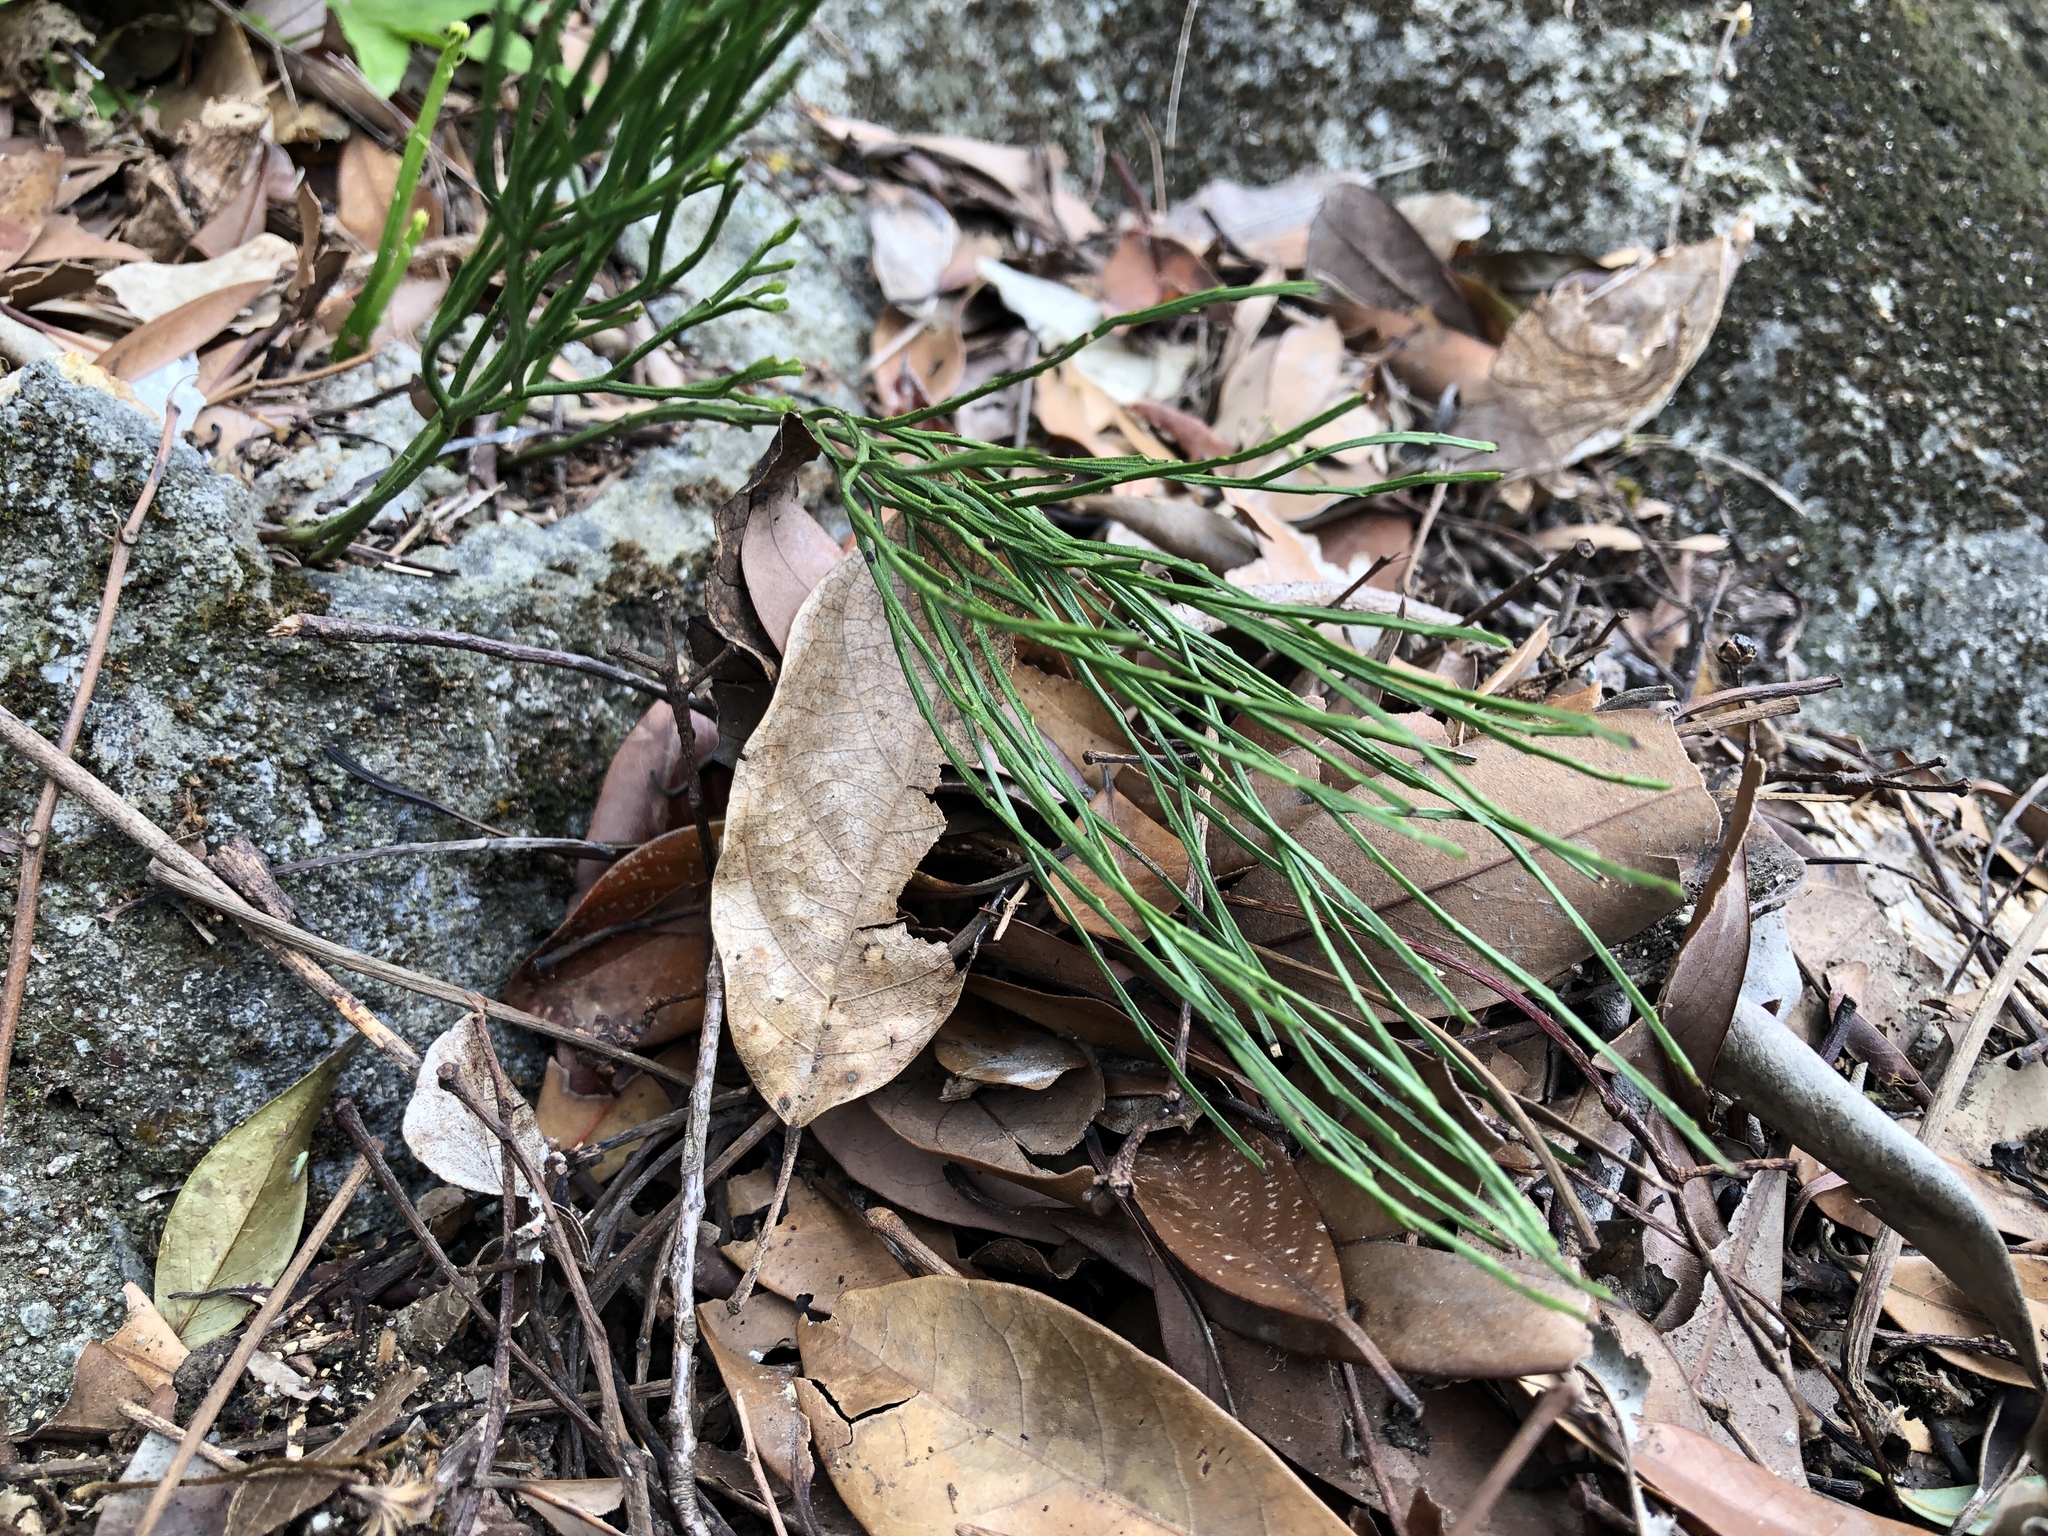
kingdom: Plantae
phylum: Tracheophyta
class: Polypodiopsida
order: Psilotales
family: Psilotaceae
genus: Psilotum
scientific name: Psilotum nudum
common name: Skeleton fork fern
